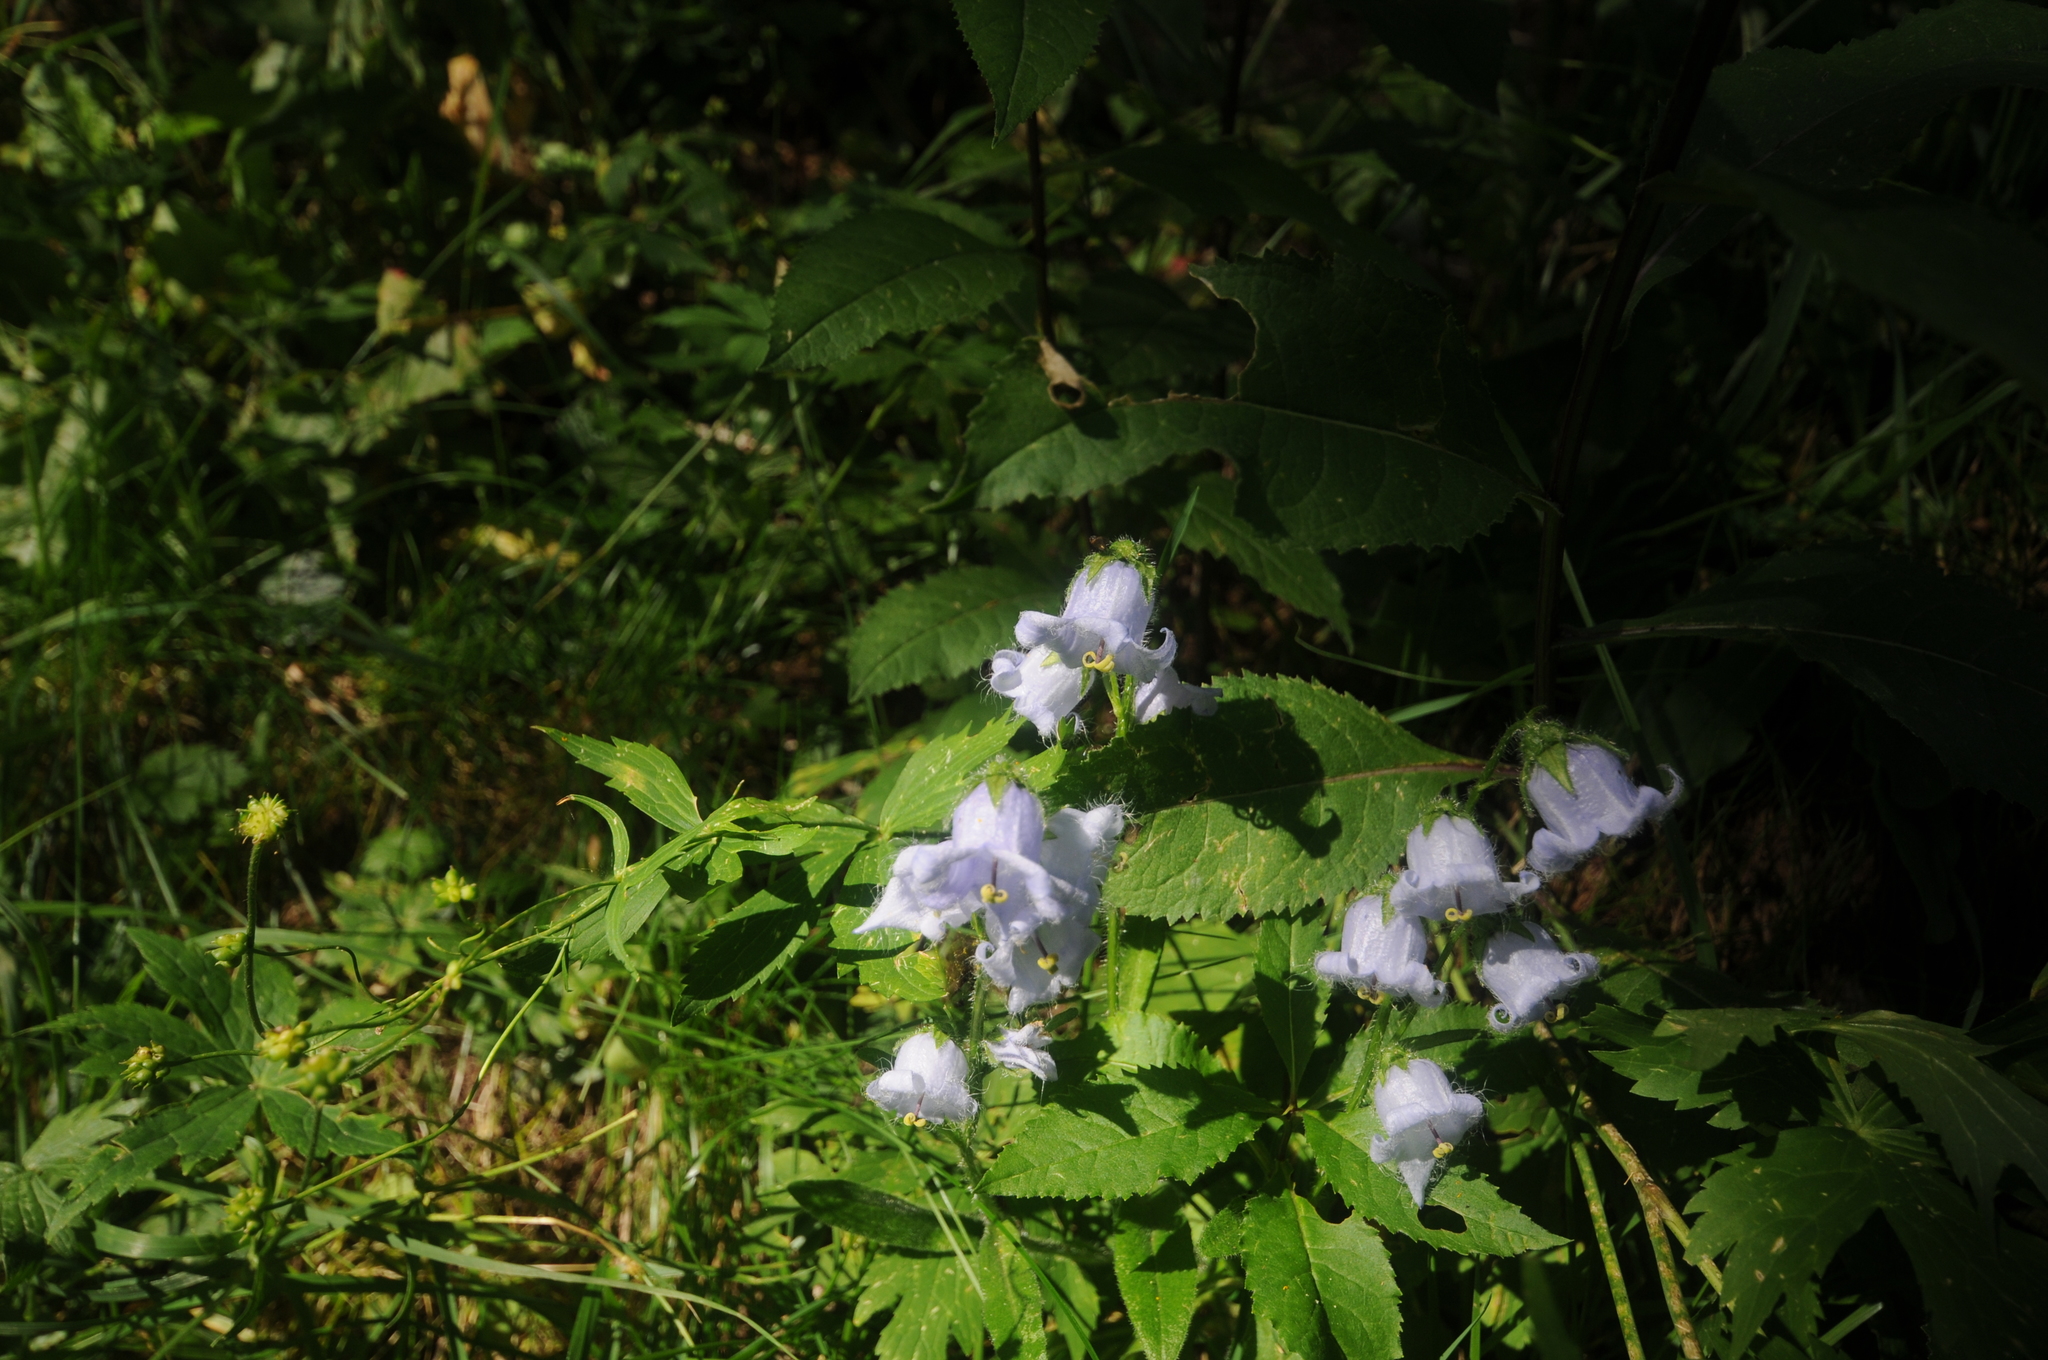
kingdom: Plantae
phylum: Tracheophyta
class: Magnoliopsida
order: Asterales
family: Campanulaceae
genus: Campanula
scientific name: Campanula barbata
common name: Bearded bellflower
